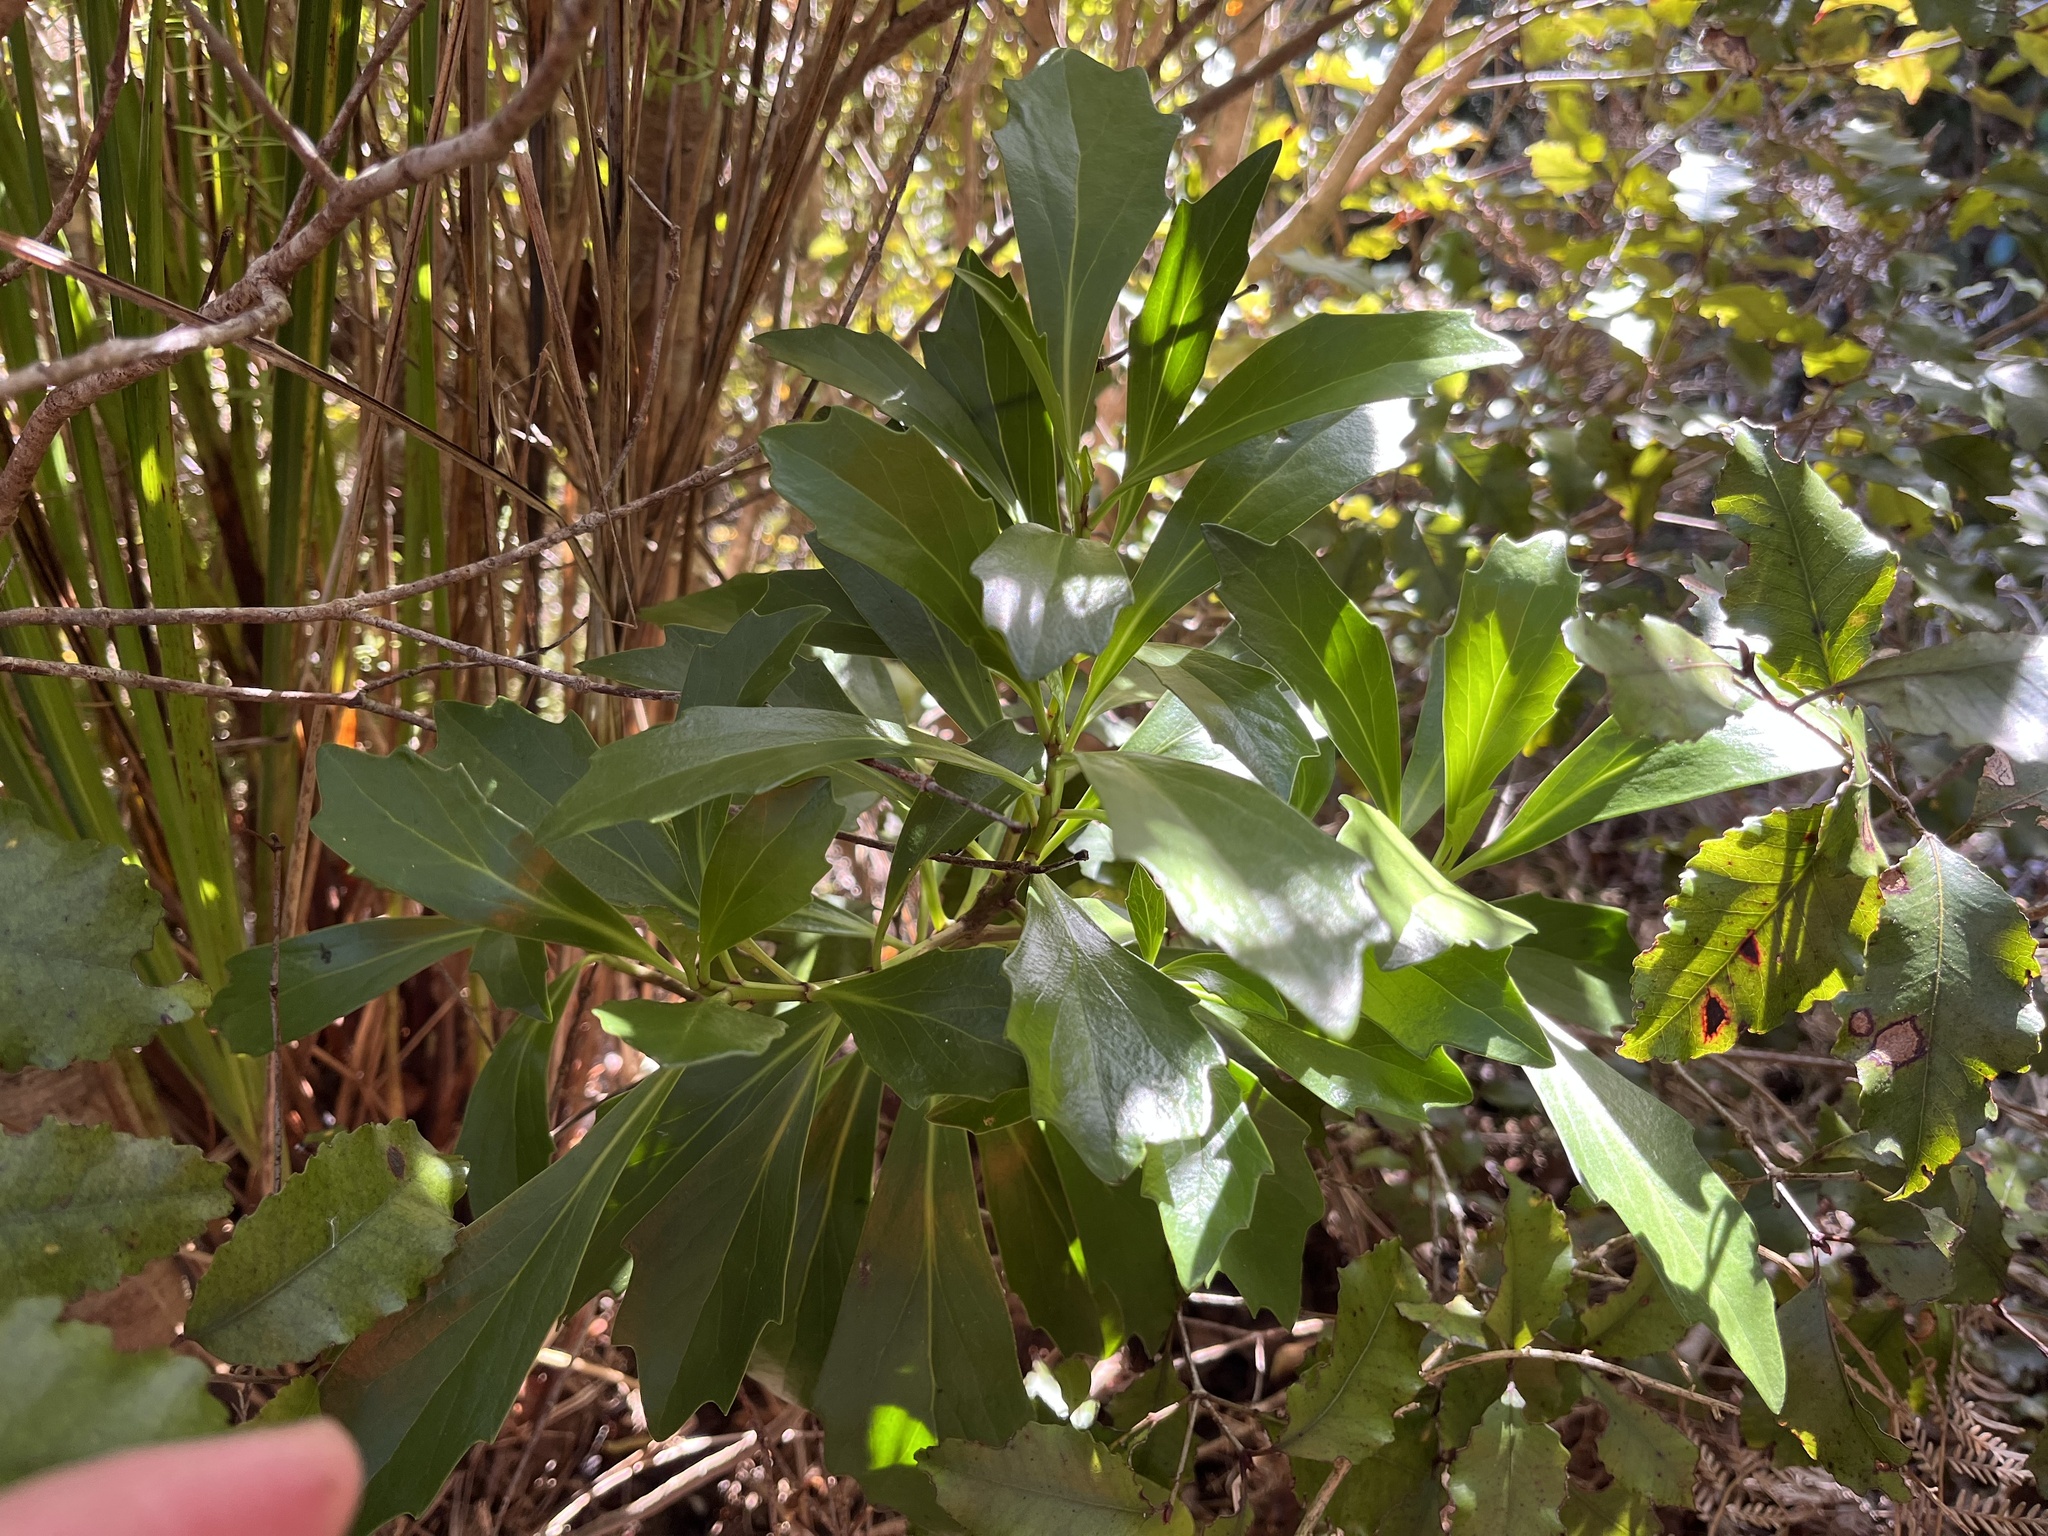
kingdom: Plantae
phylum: Tracheophyta
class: Magnoliopsida
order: Asterales
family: Asteraceae
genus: Brachyglottis
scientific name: Brachyglottis kirkii
